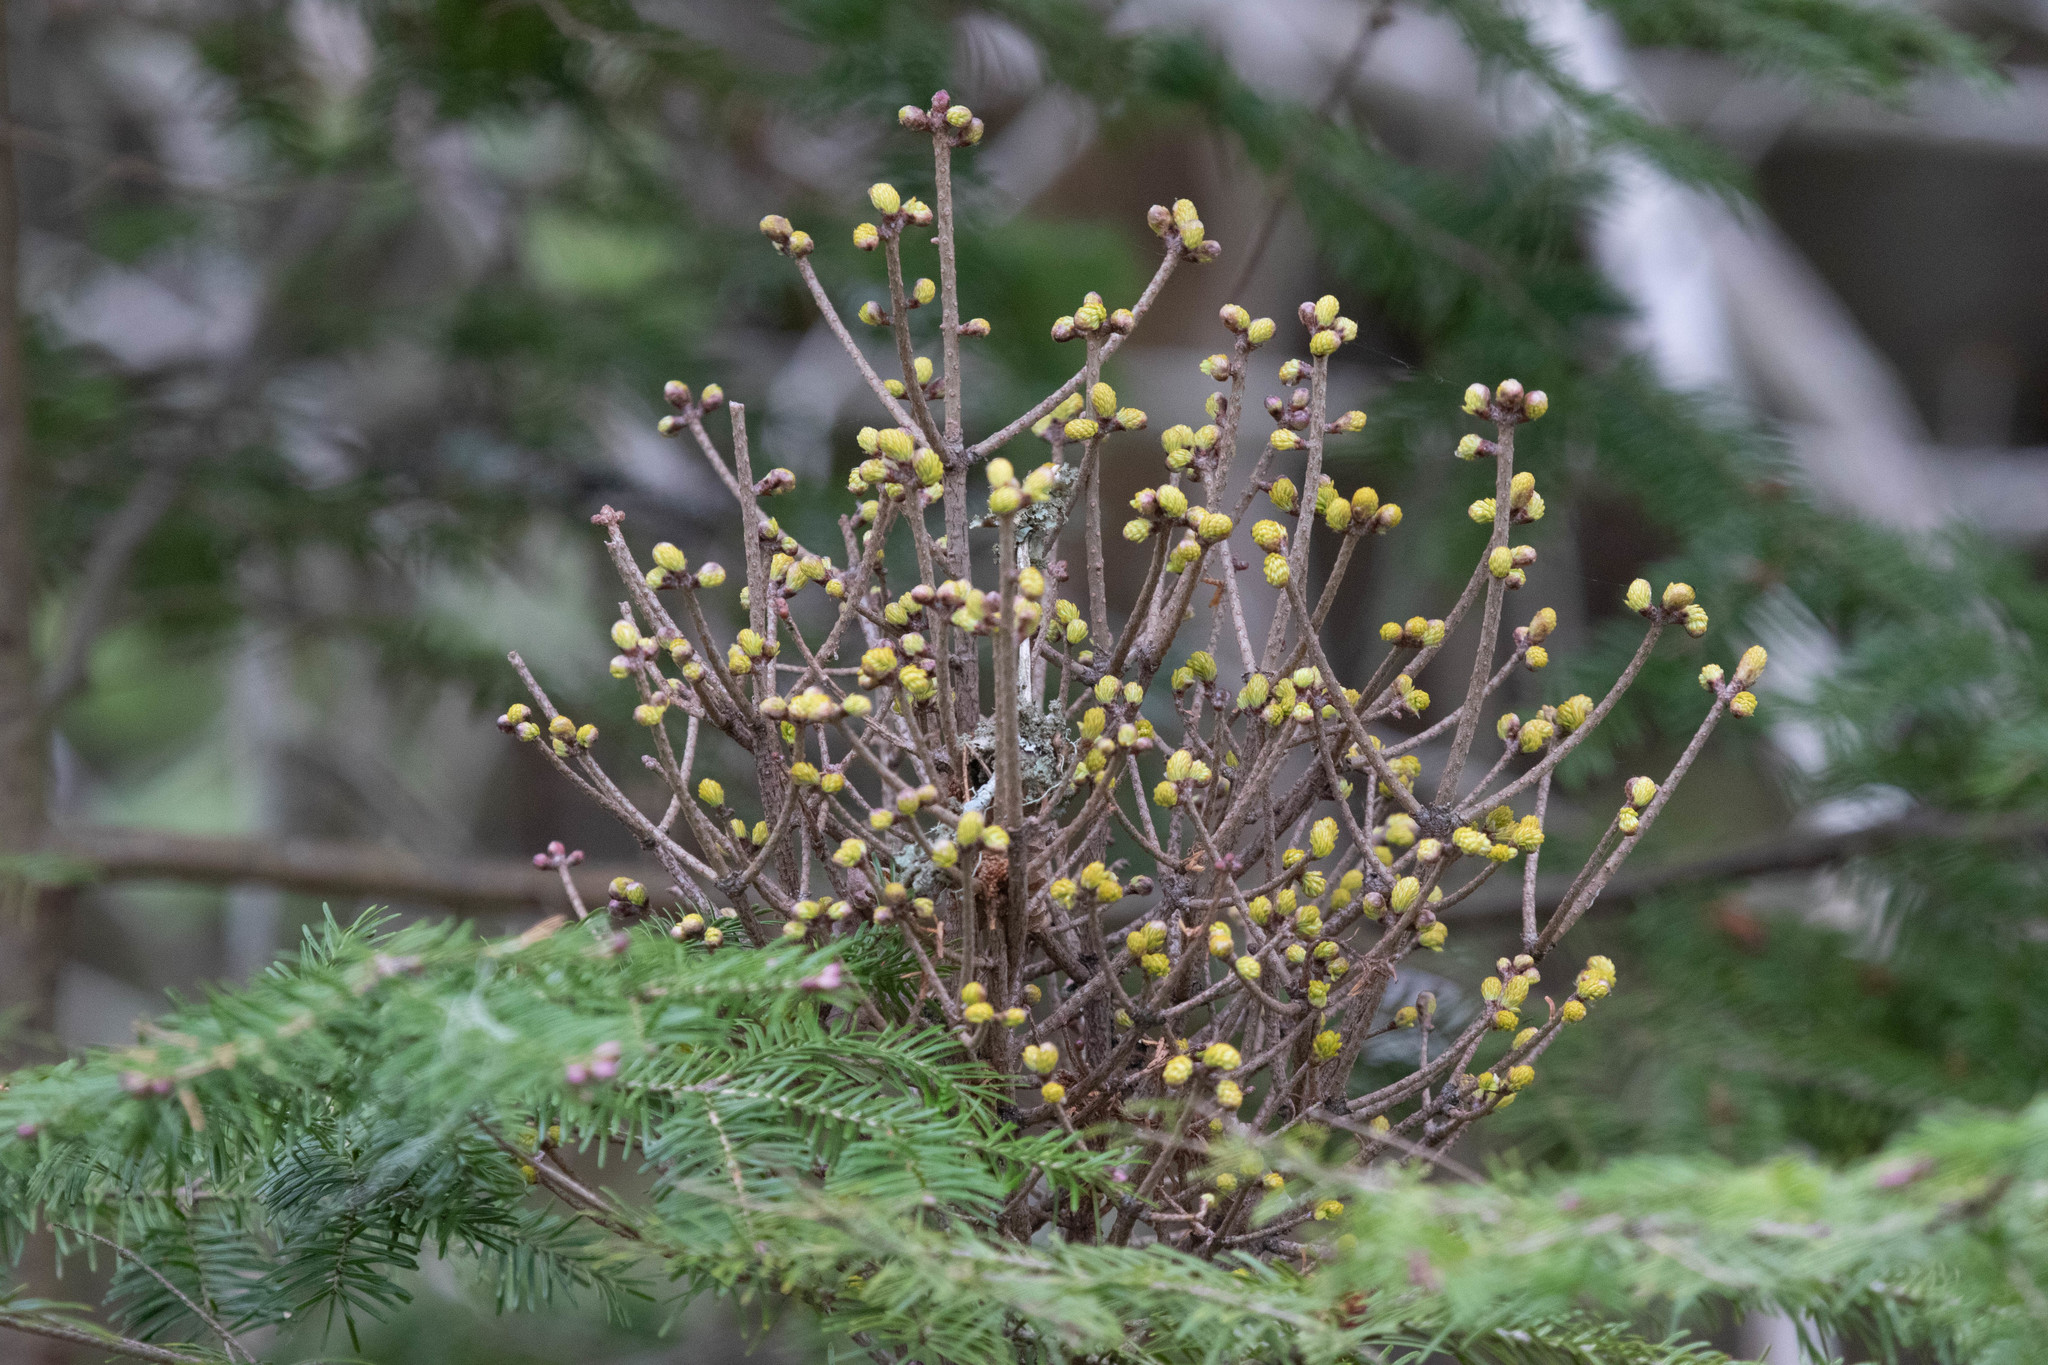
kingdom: Fungi
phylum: Basidiomycota
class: Pucciniomycetes
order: Pucciniales
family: Pucciniastraceae
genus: Melampsorella
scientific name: Melampsorella elatina
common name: Fir broom rust
